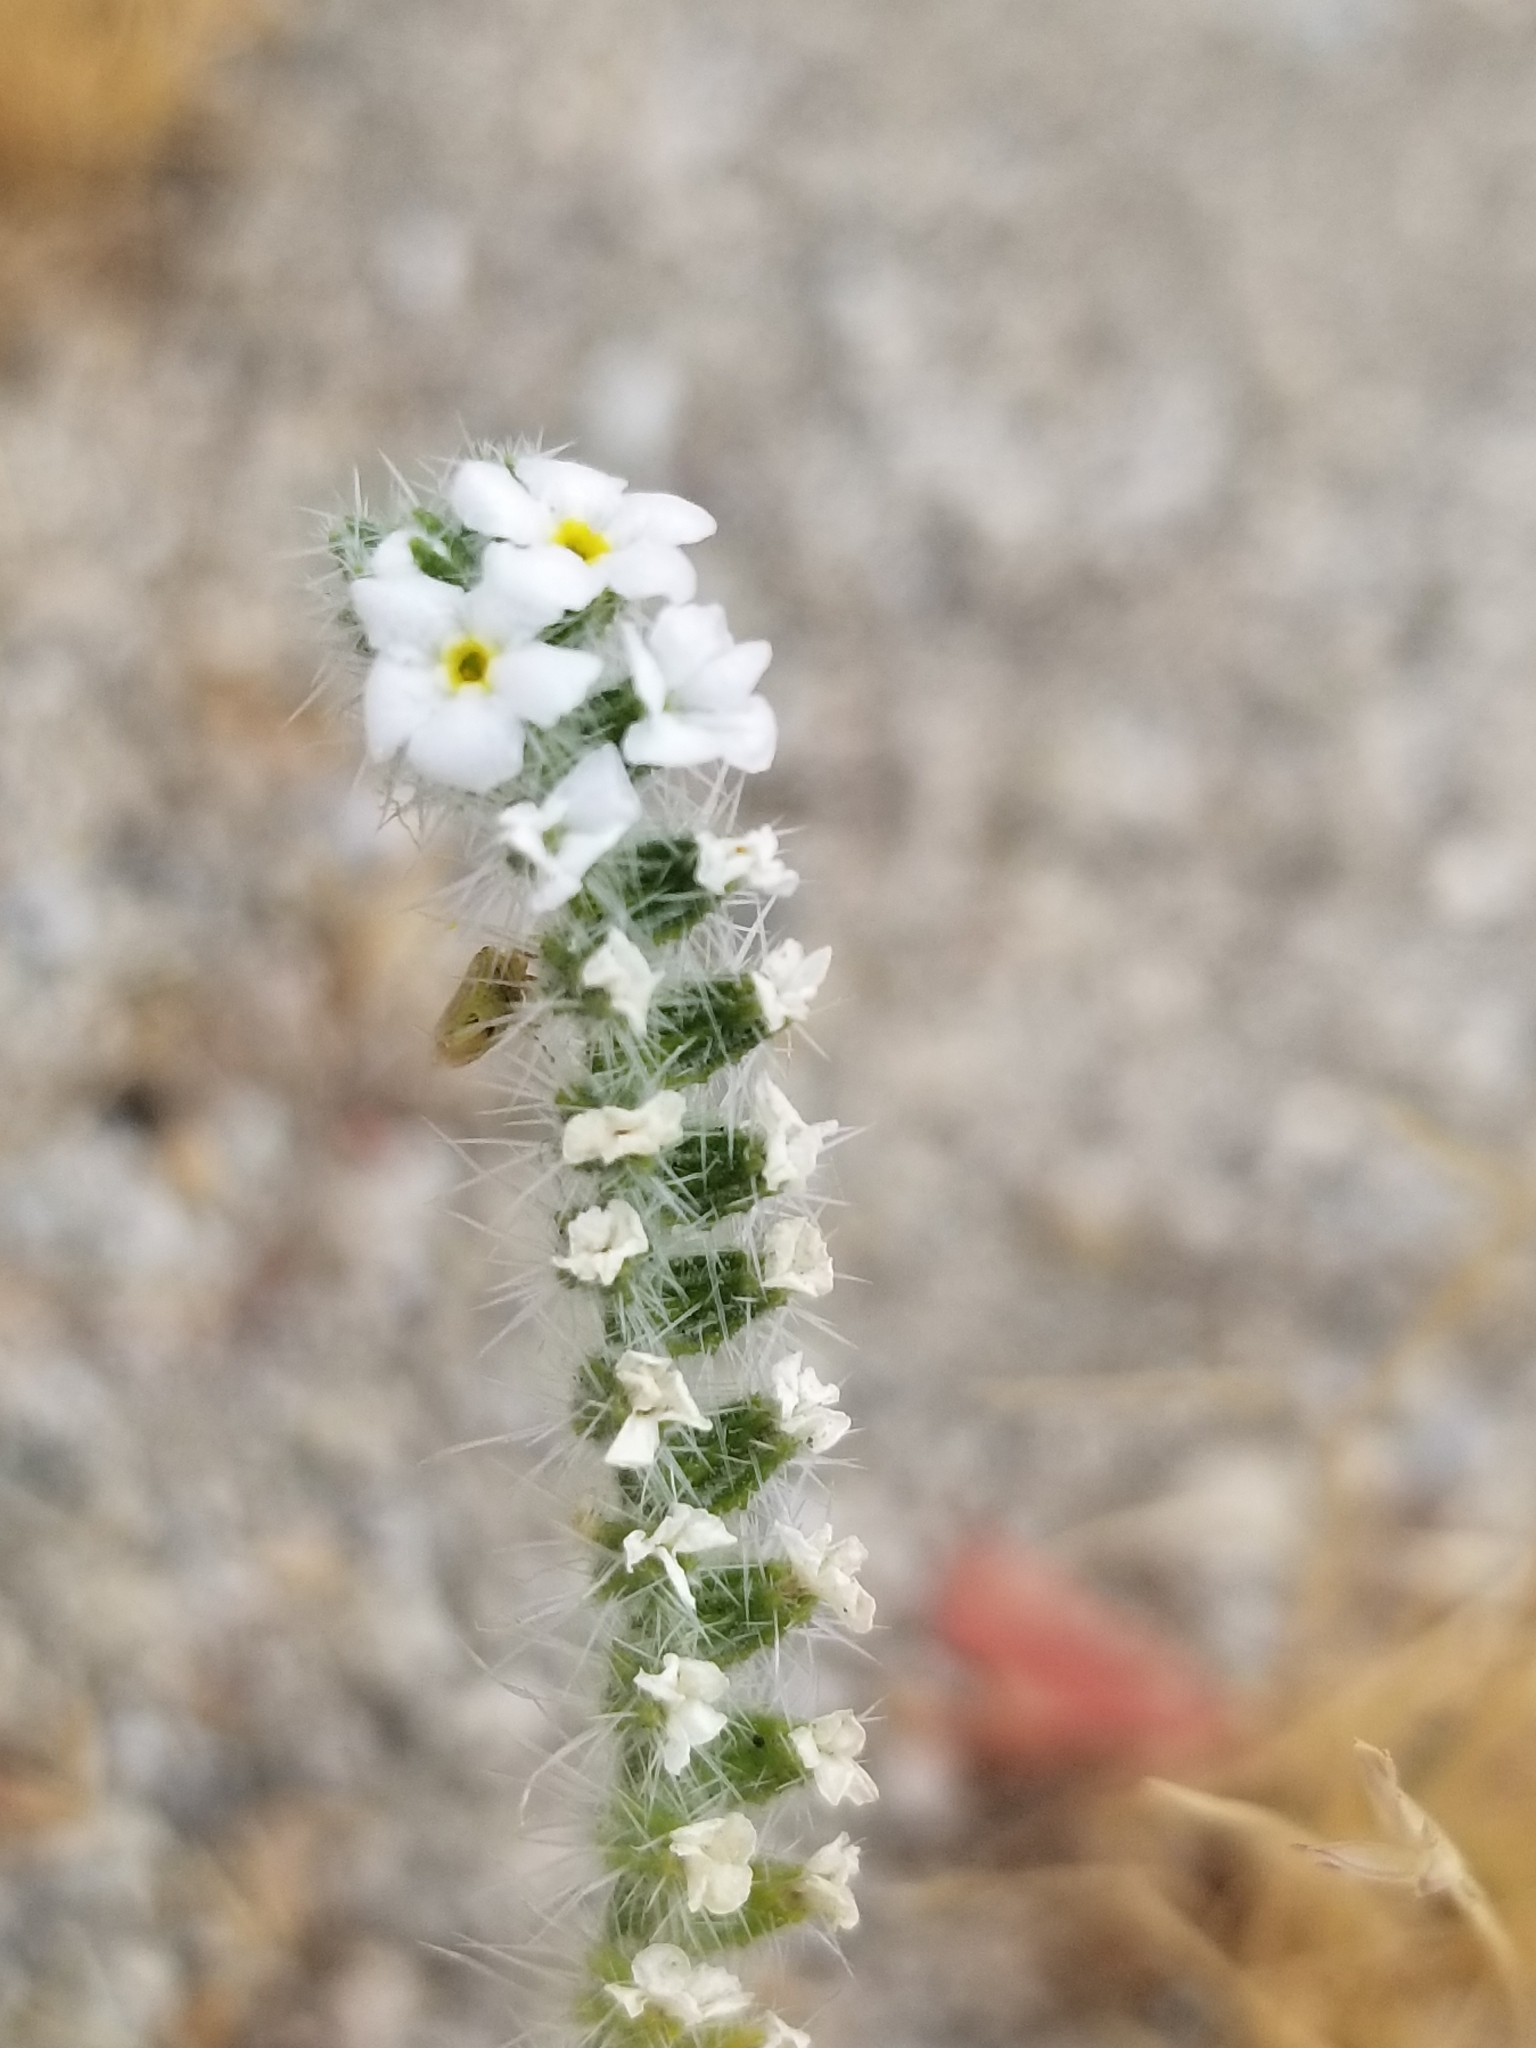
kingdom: Plantae
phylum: Tracheophyta
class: Magnoliopsida
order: Boraginales
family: Boraginaceae
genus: Cryptantha
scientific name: Cryptantha intermedia
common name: Clearwater cryptantha
